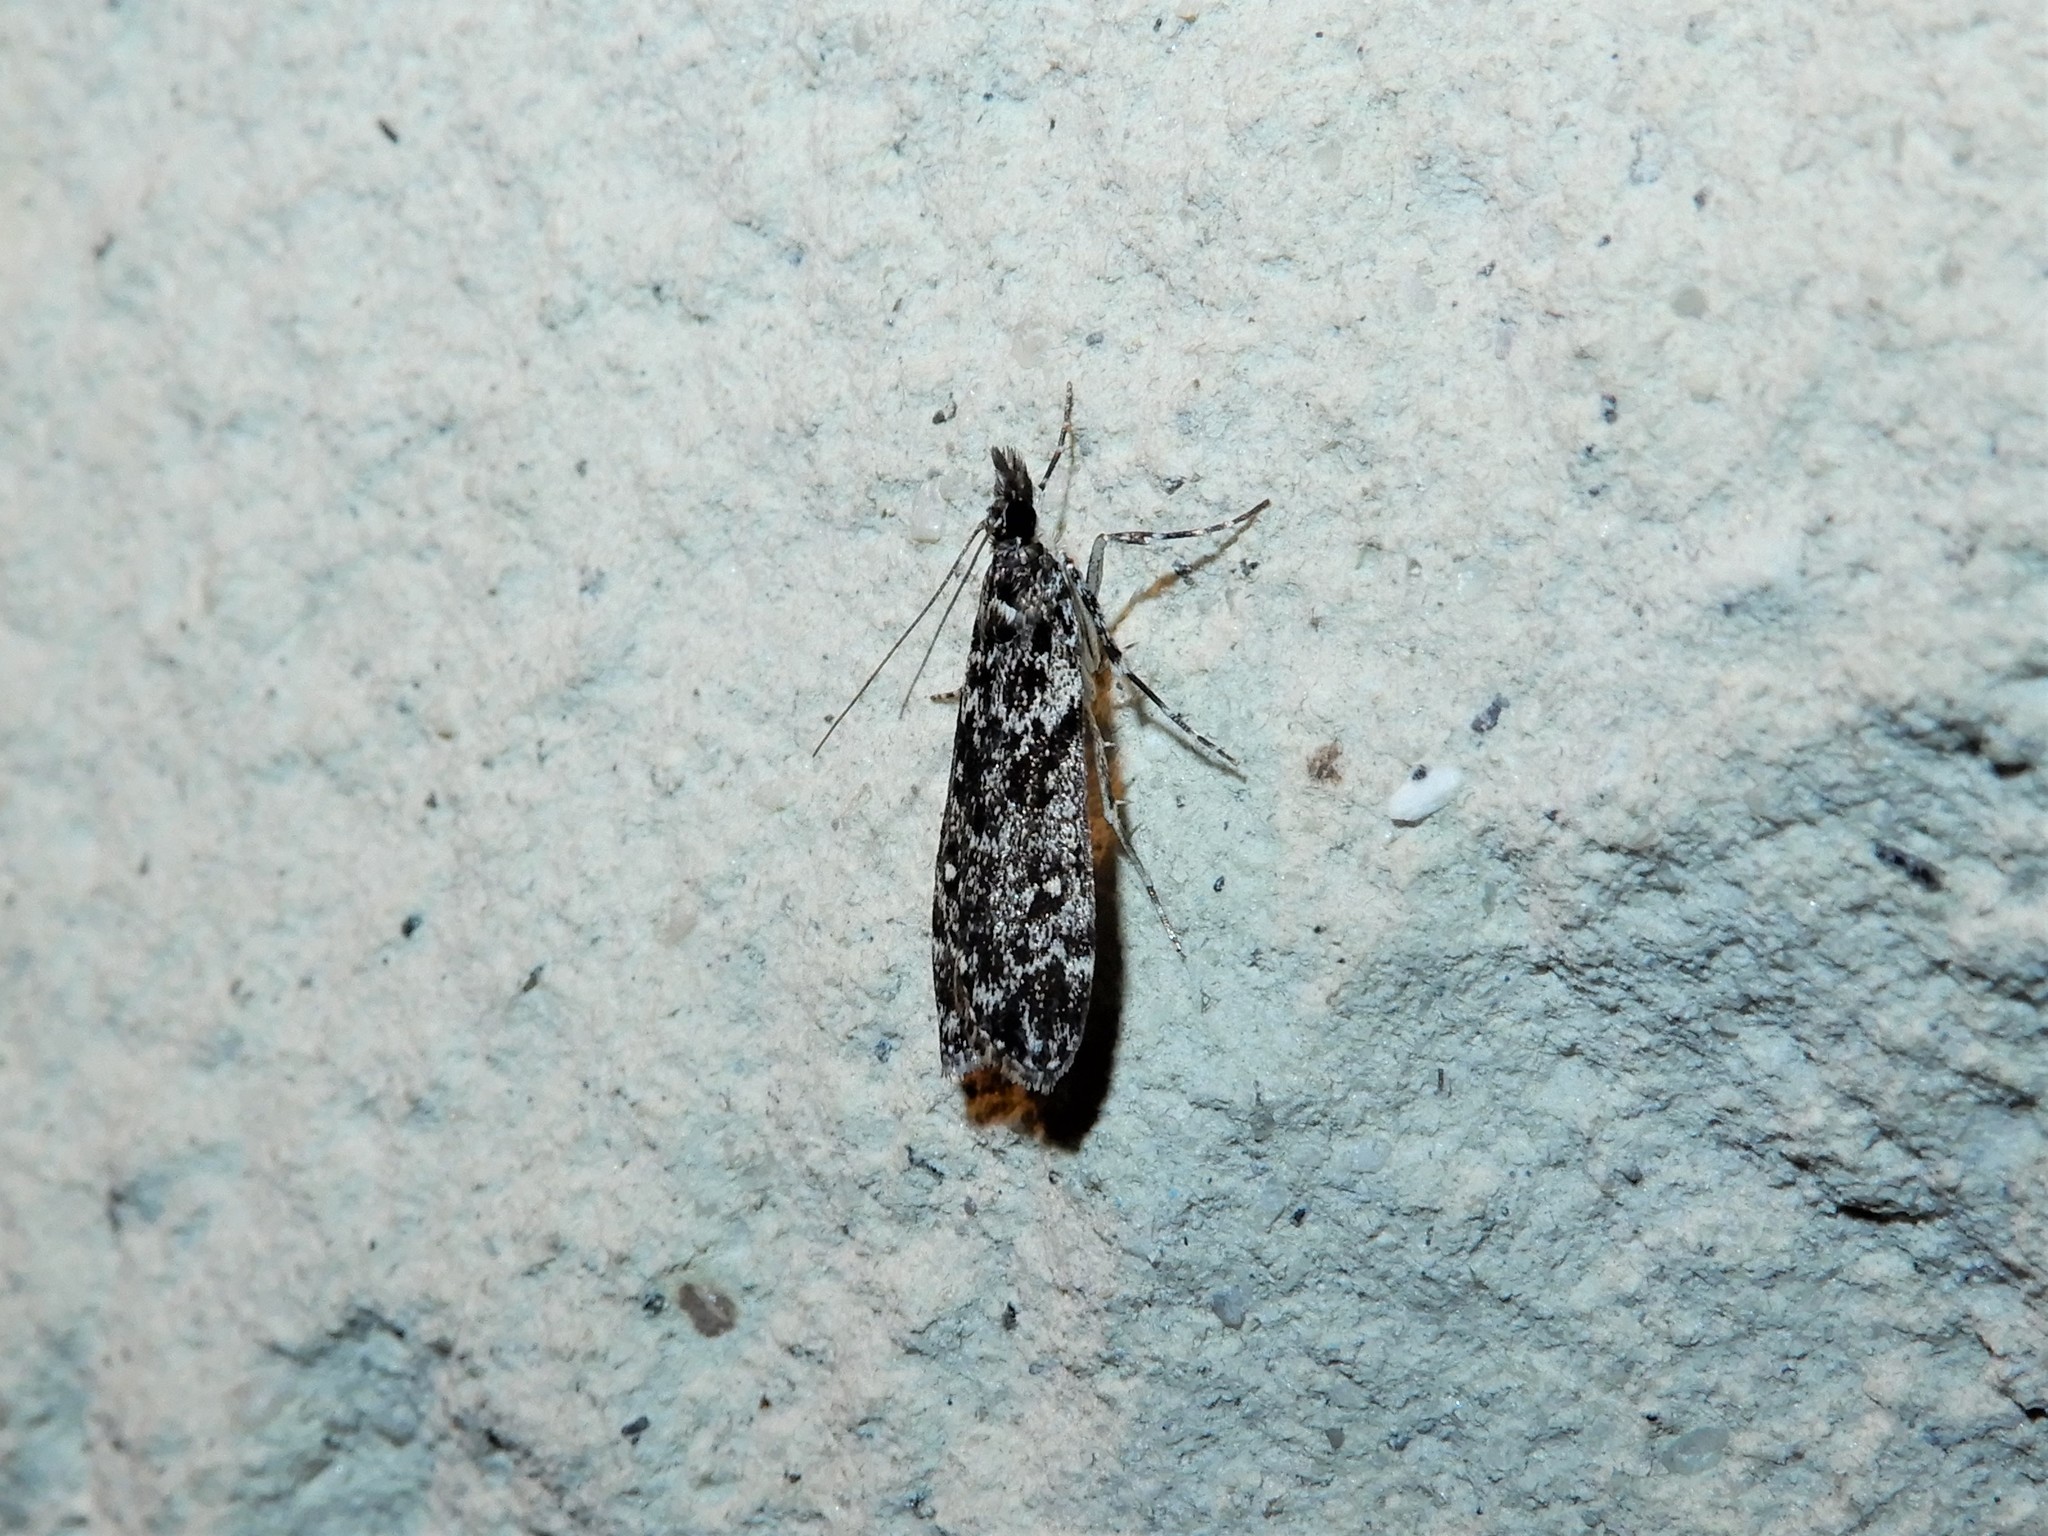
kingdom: Animalia
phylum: Arthropoda
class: Insecta
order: Lepidoptera
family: Crambidae
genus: Eudonia
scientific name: Eudonia philerga
